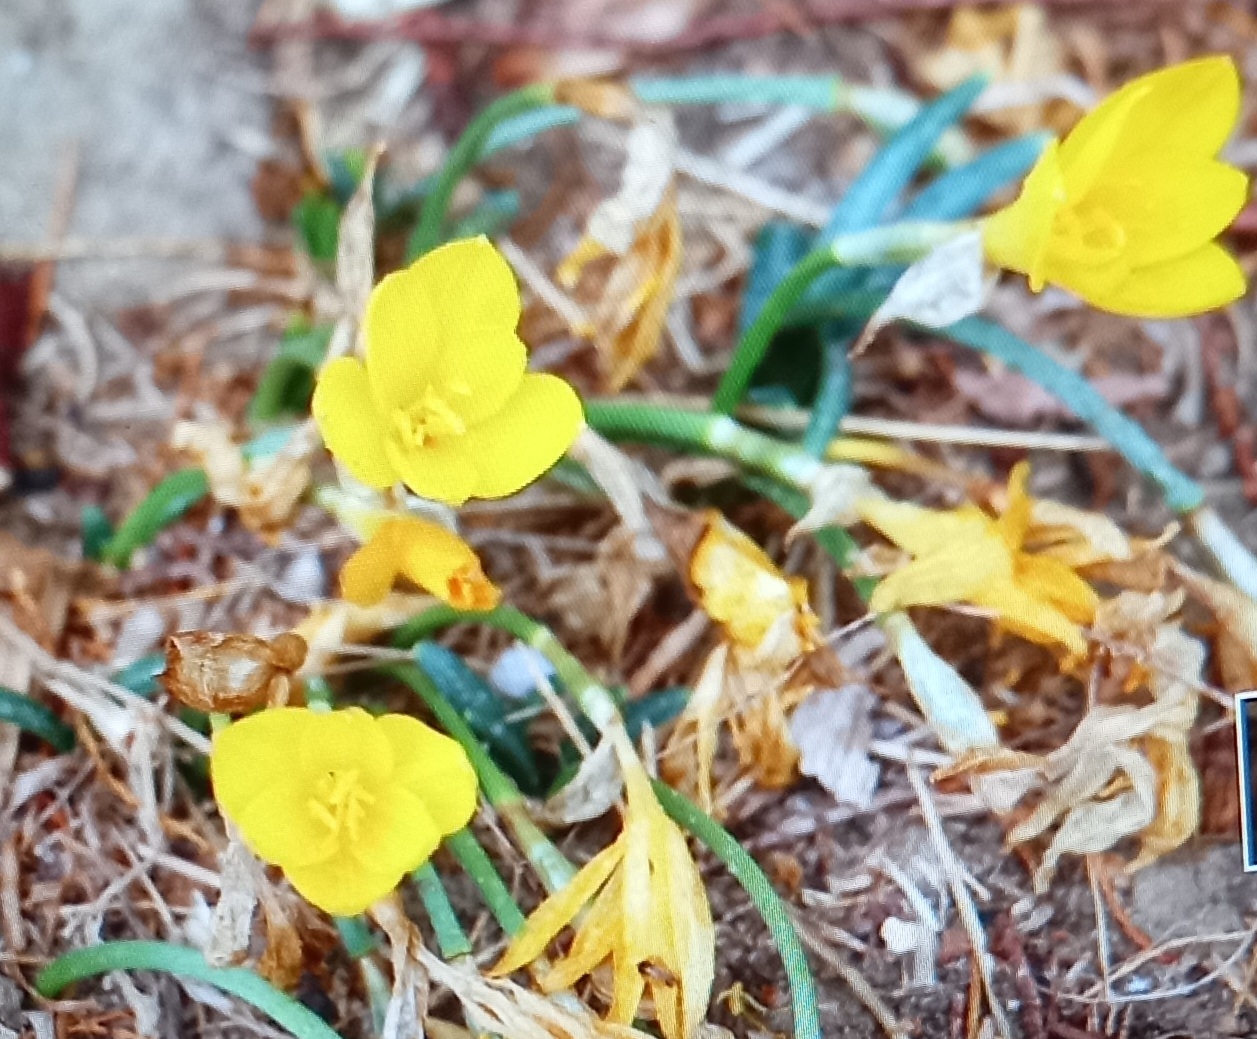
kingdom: Plantae
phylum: Tracheophyta
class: Liliopsida
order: Asparagales
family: Amaryllidaceae
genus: Sternbergia
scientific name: Sternbergia lutea
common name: Winter daffodil
